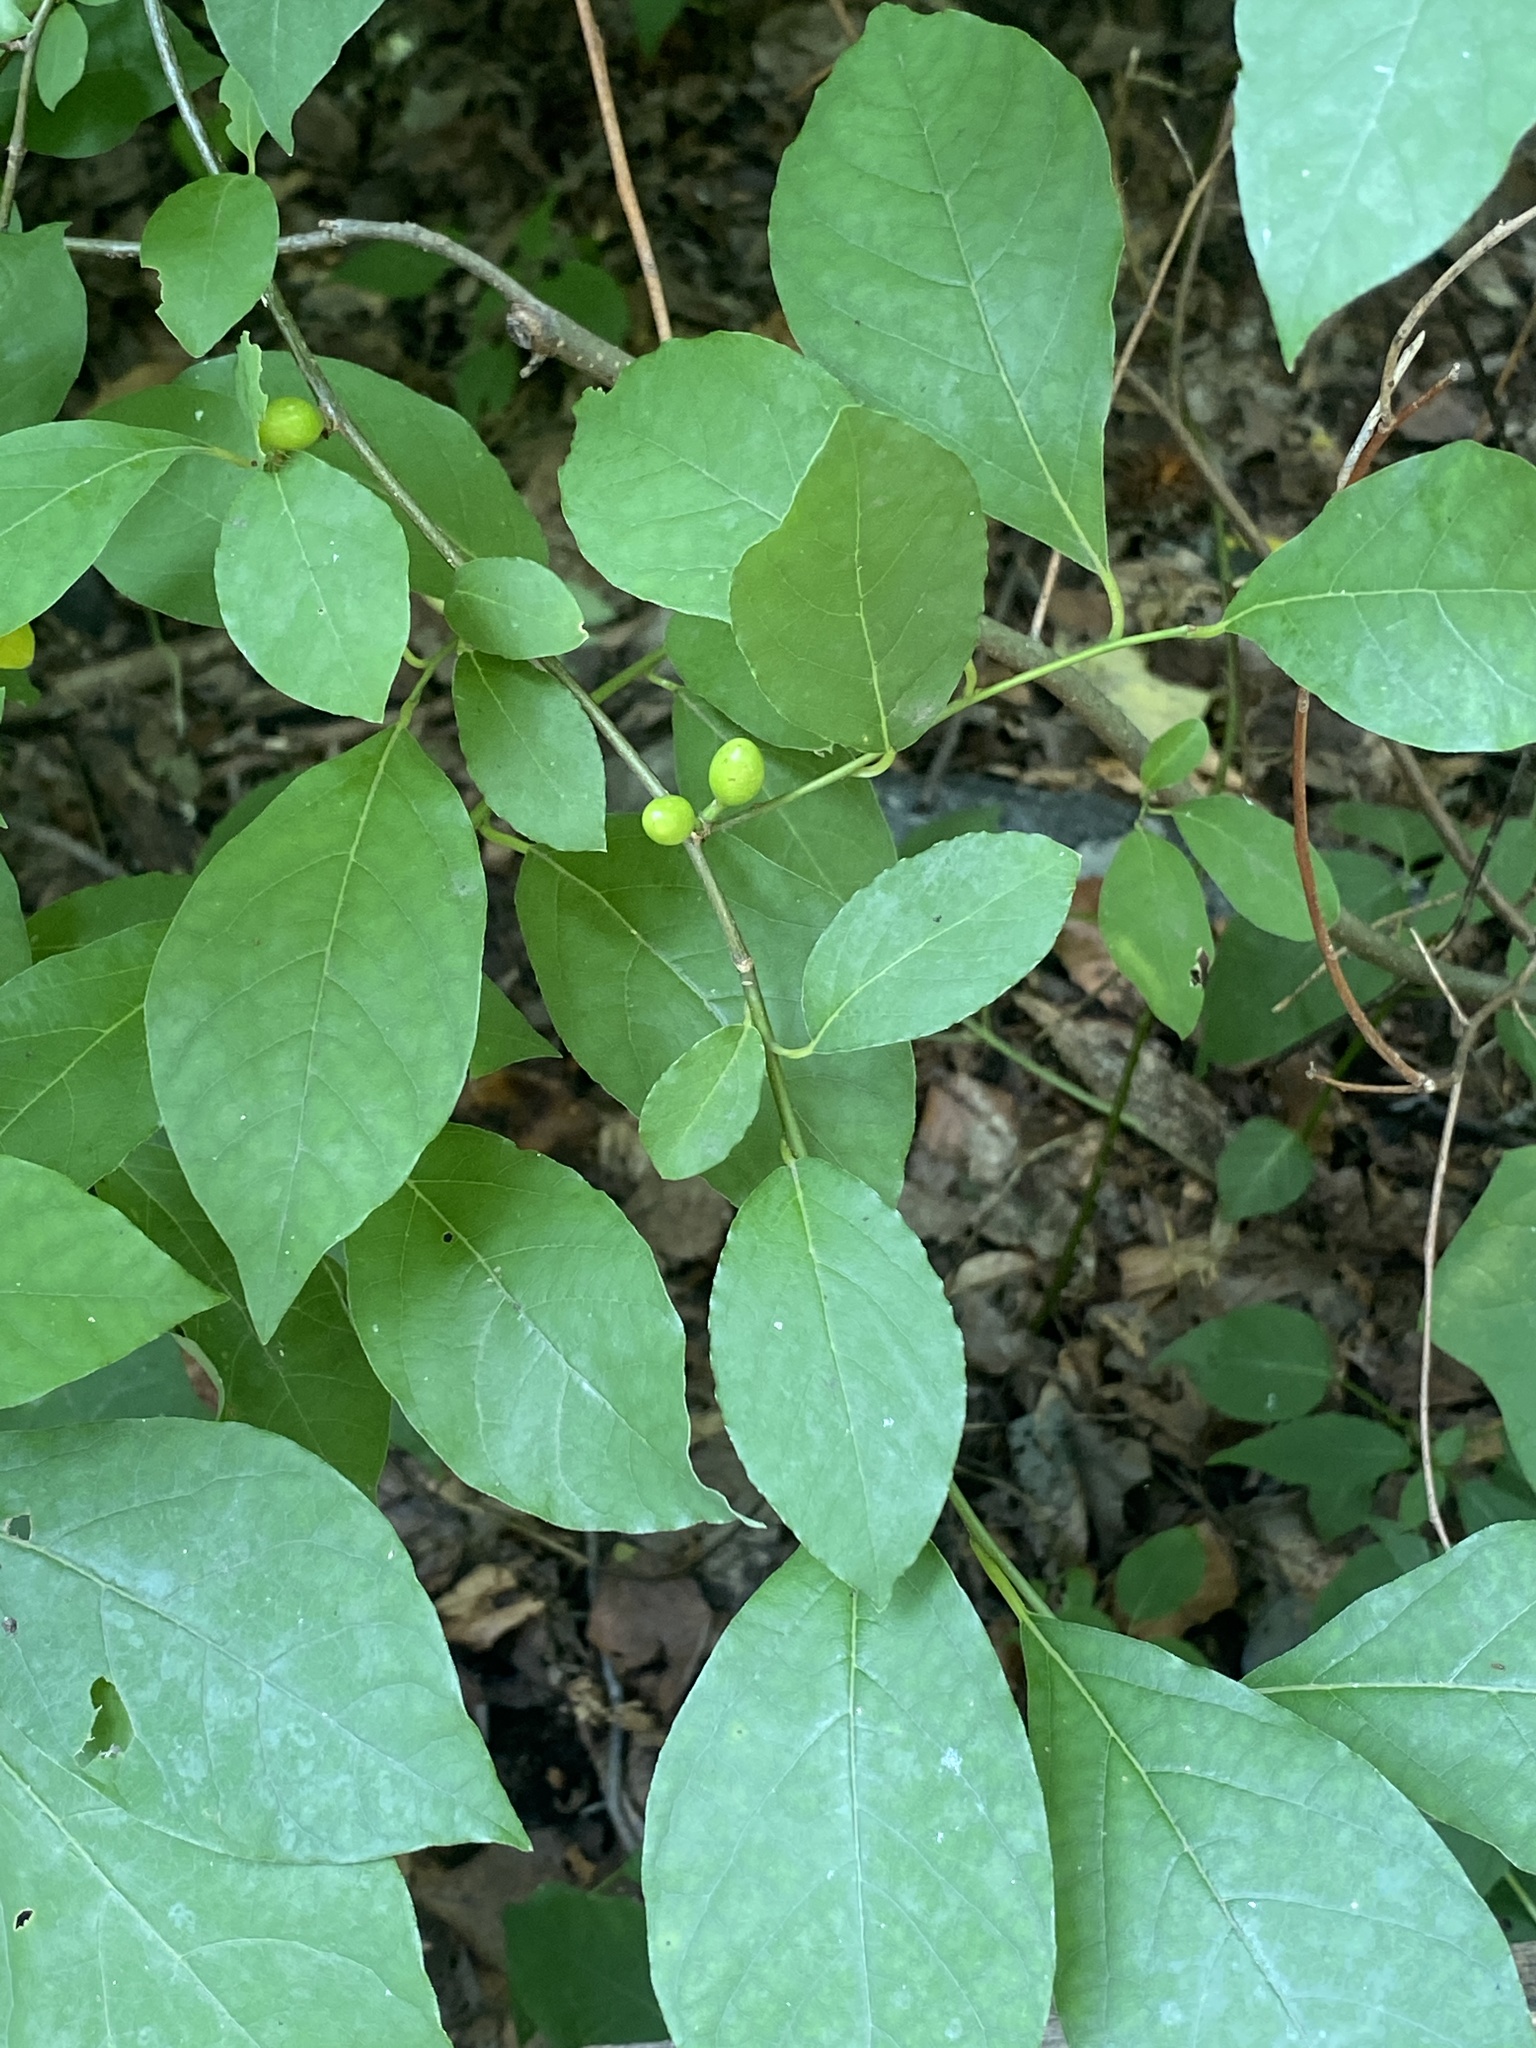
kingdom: Plantae
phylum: Tracheophyta
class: Magnoliopsida
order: Laurales
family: Lauraceae
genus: Lindera
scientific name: Lindera benzoin
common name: Spicebush
